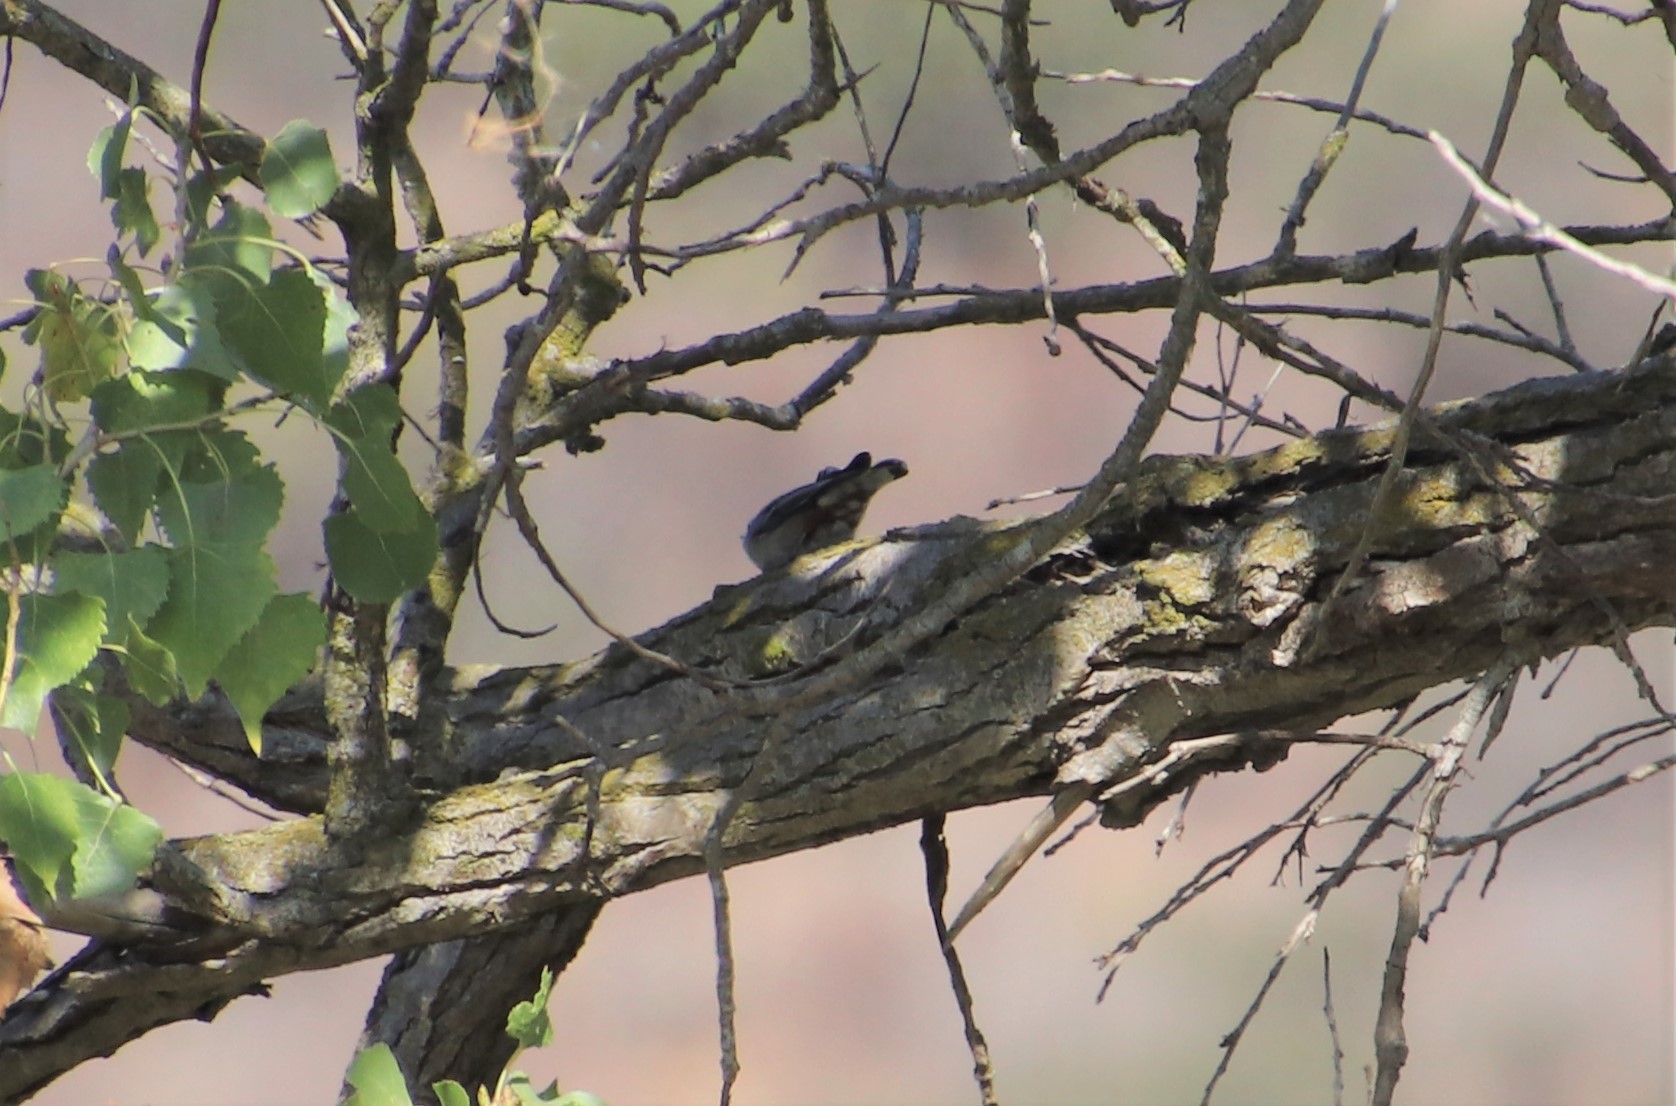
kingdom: Animalia
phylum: Chordata
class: Aves
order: Passeriformes
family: Sittidae
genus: Sitta
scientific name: Sitta carolinensis
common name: White-breasted nuthatch
